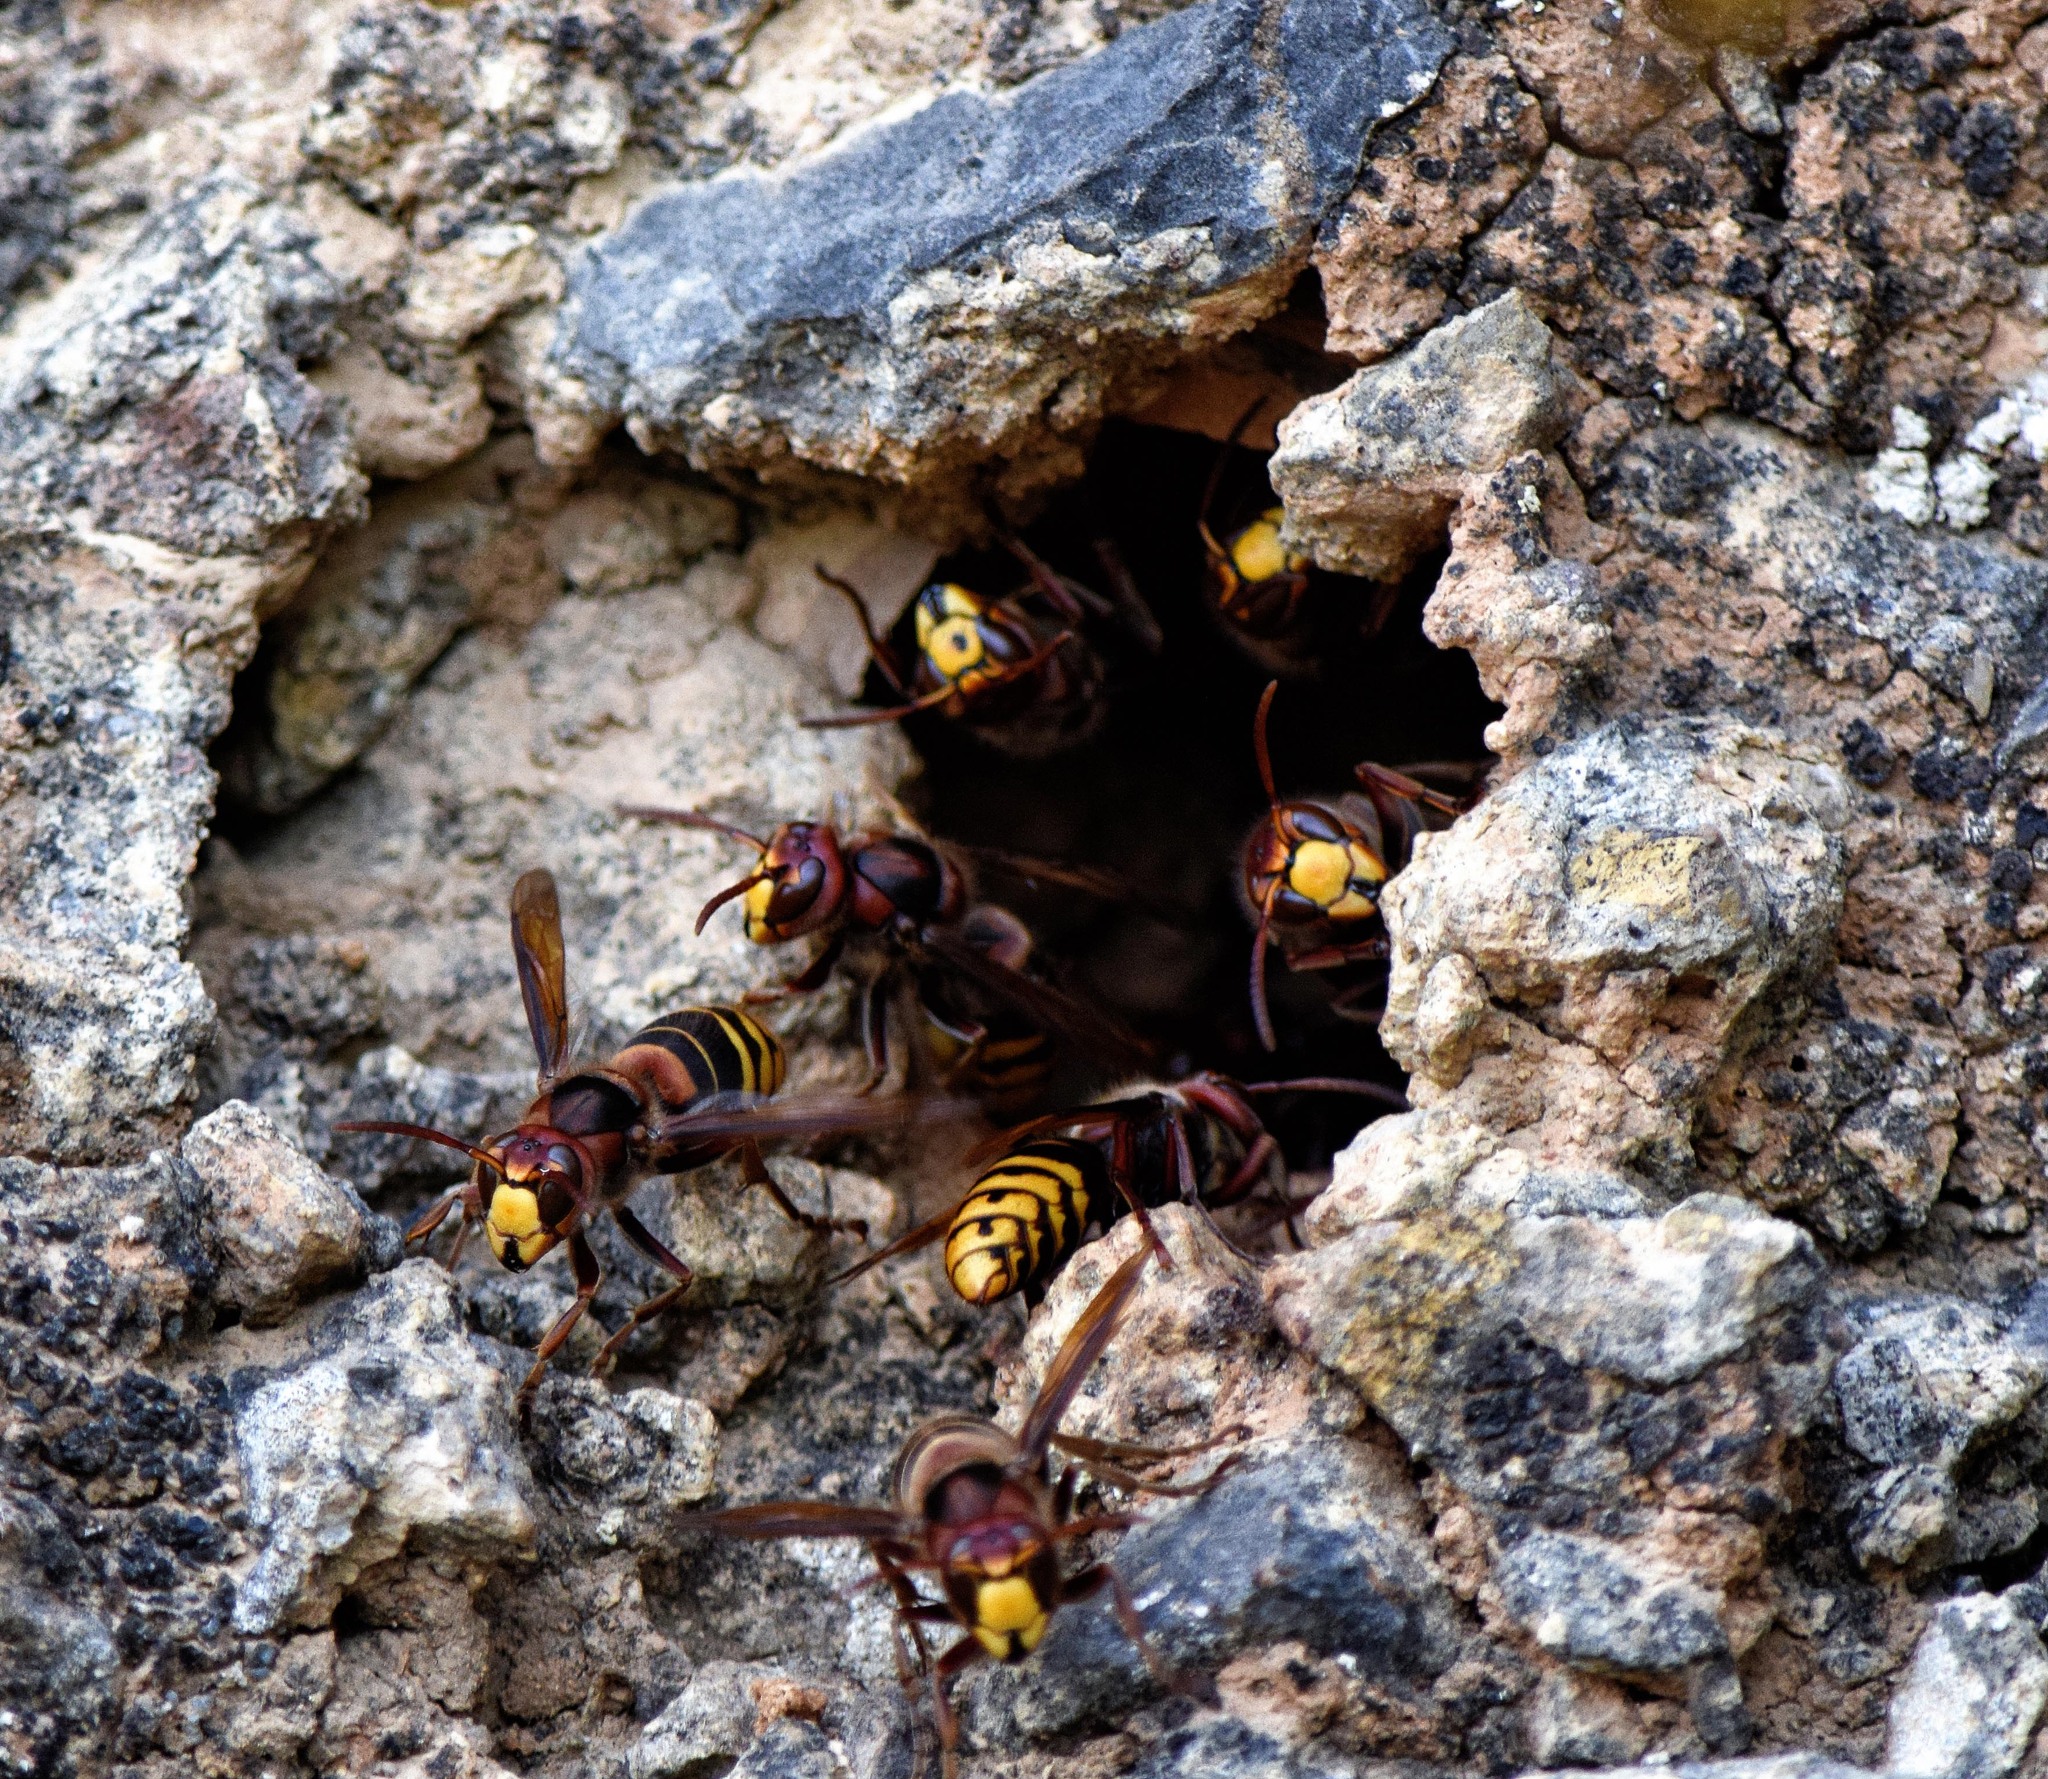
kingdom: Animalia
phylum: Arthropoda
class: Insecta
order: Hymenoptera
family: Vespidae
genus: Vespa
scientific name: Vespa crabro
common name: Hornet
